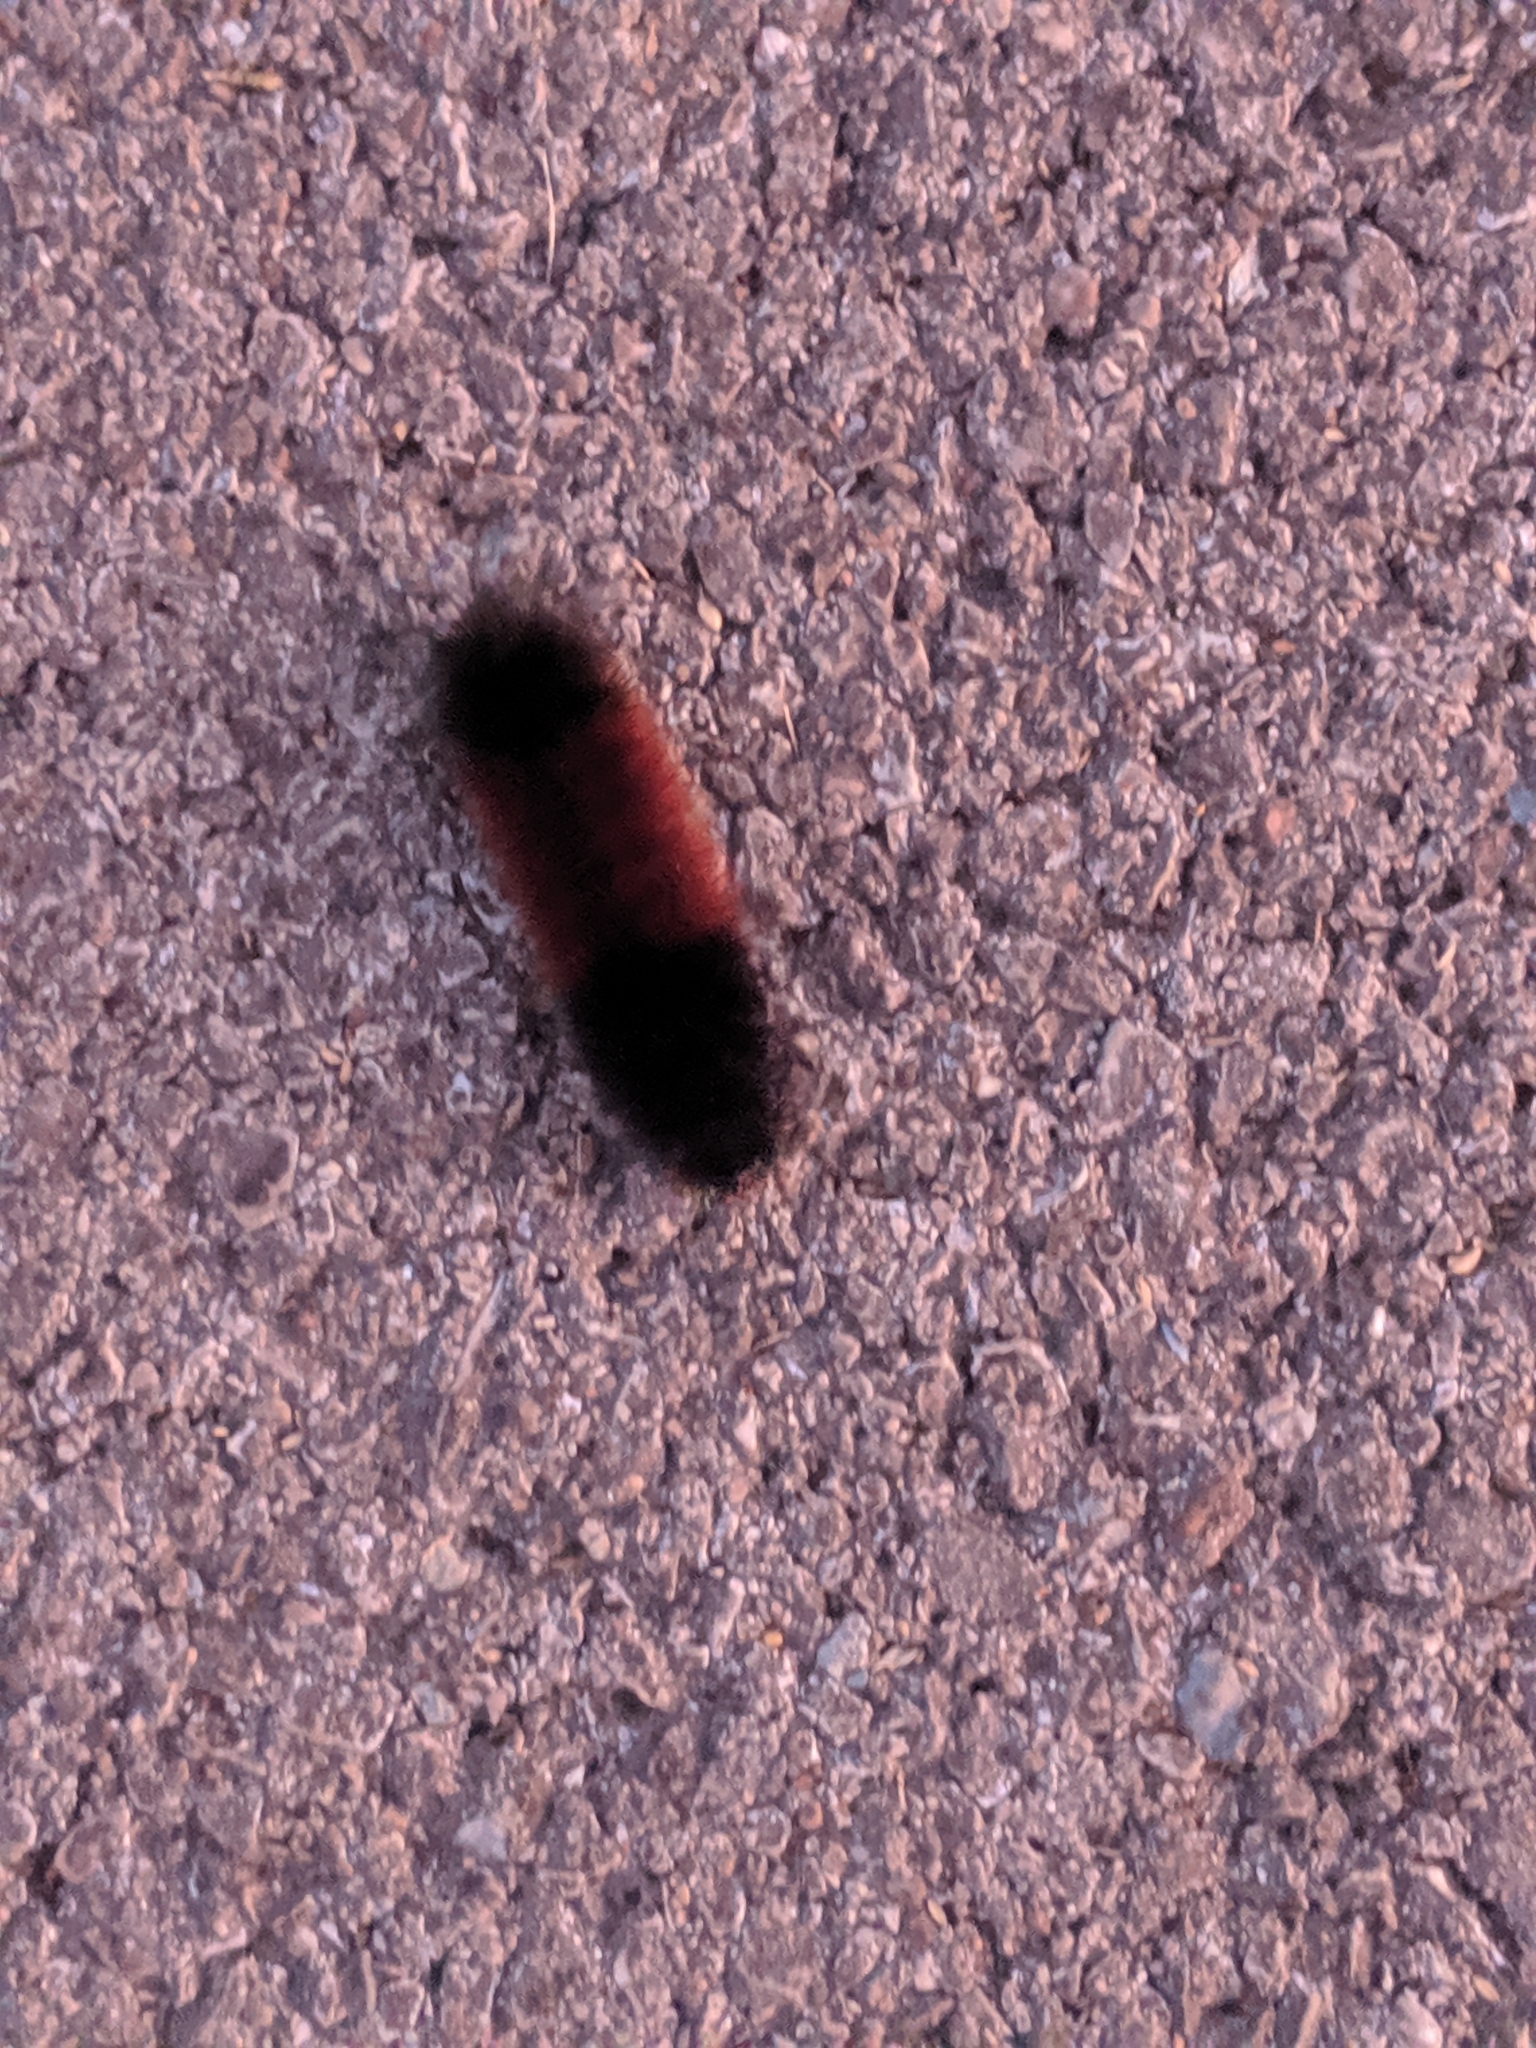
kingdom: Animalia
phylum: Arthropoda
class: Insecta
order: Lepidoptera
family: Erebidae
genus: Pyrrharctia
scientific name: Pyrrharctia isabella
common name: Isabella tiger moth
